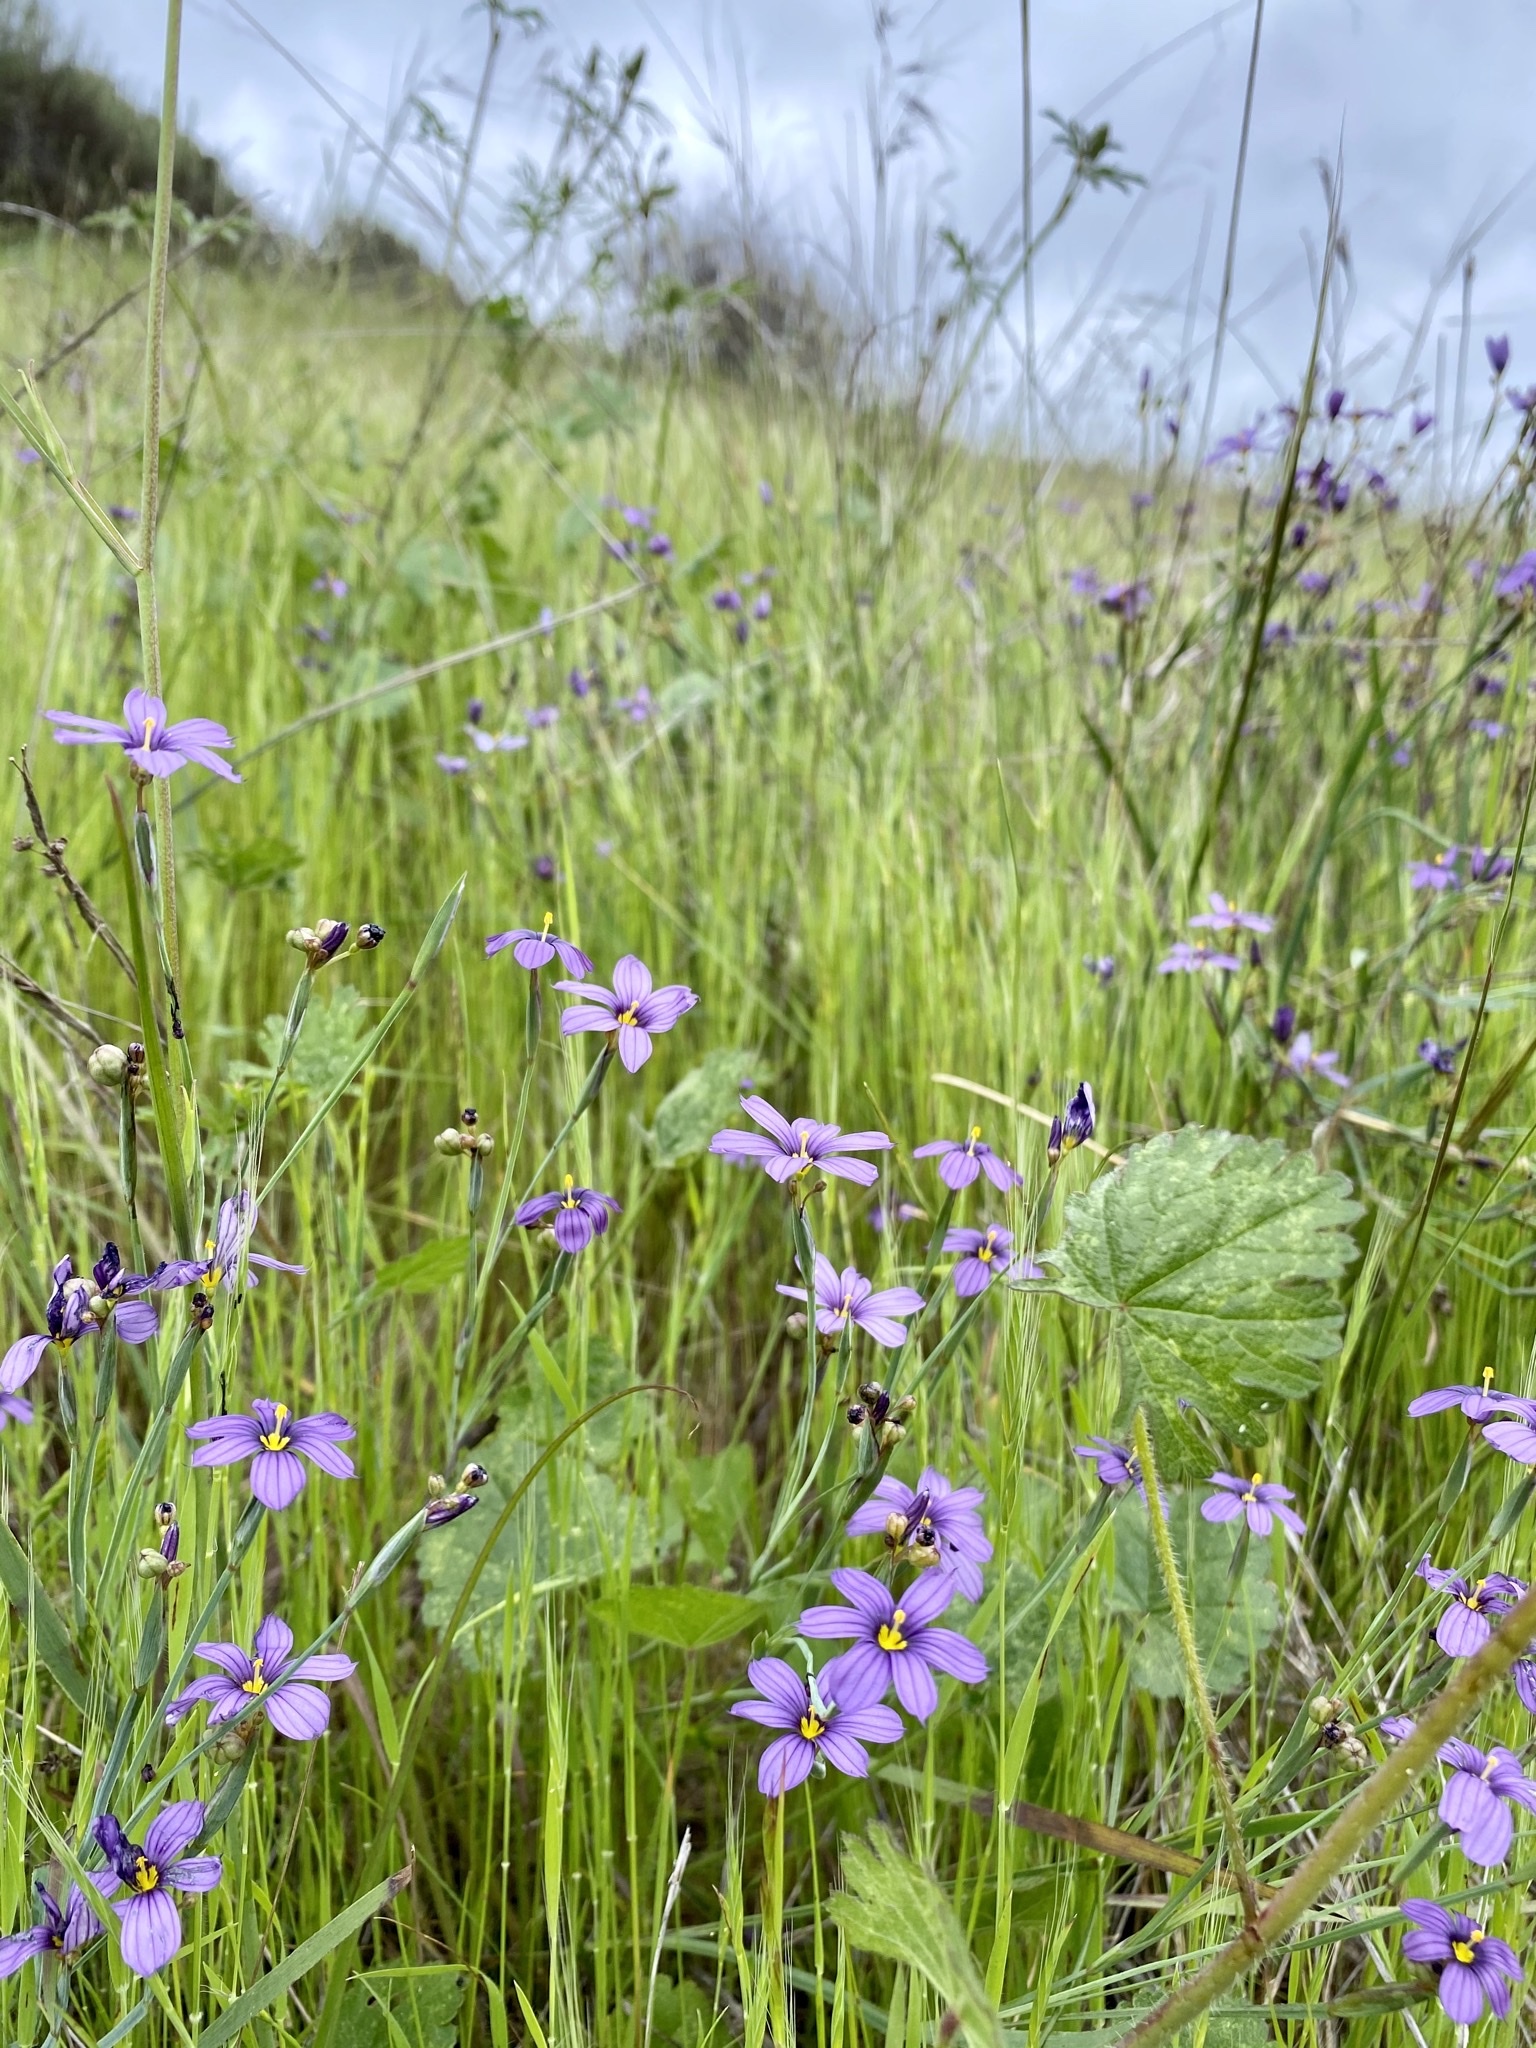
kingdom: Plantae
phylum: Tracheophyta
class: Liliopsida
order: Asparagales
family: Iridaceae
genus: Sisyrinchium
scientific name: Sisyrinchium bellum
